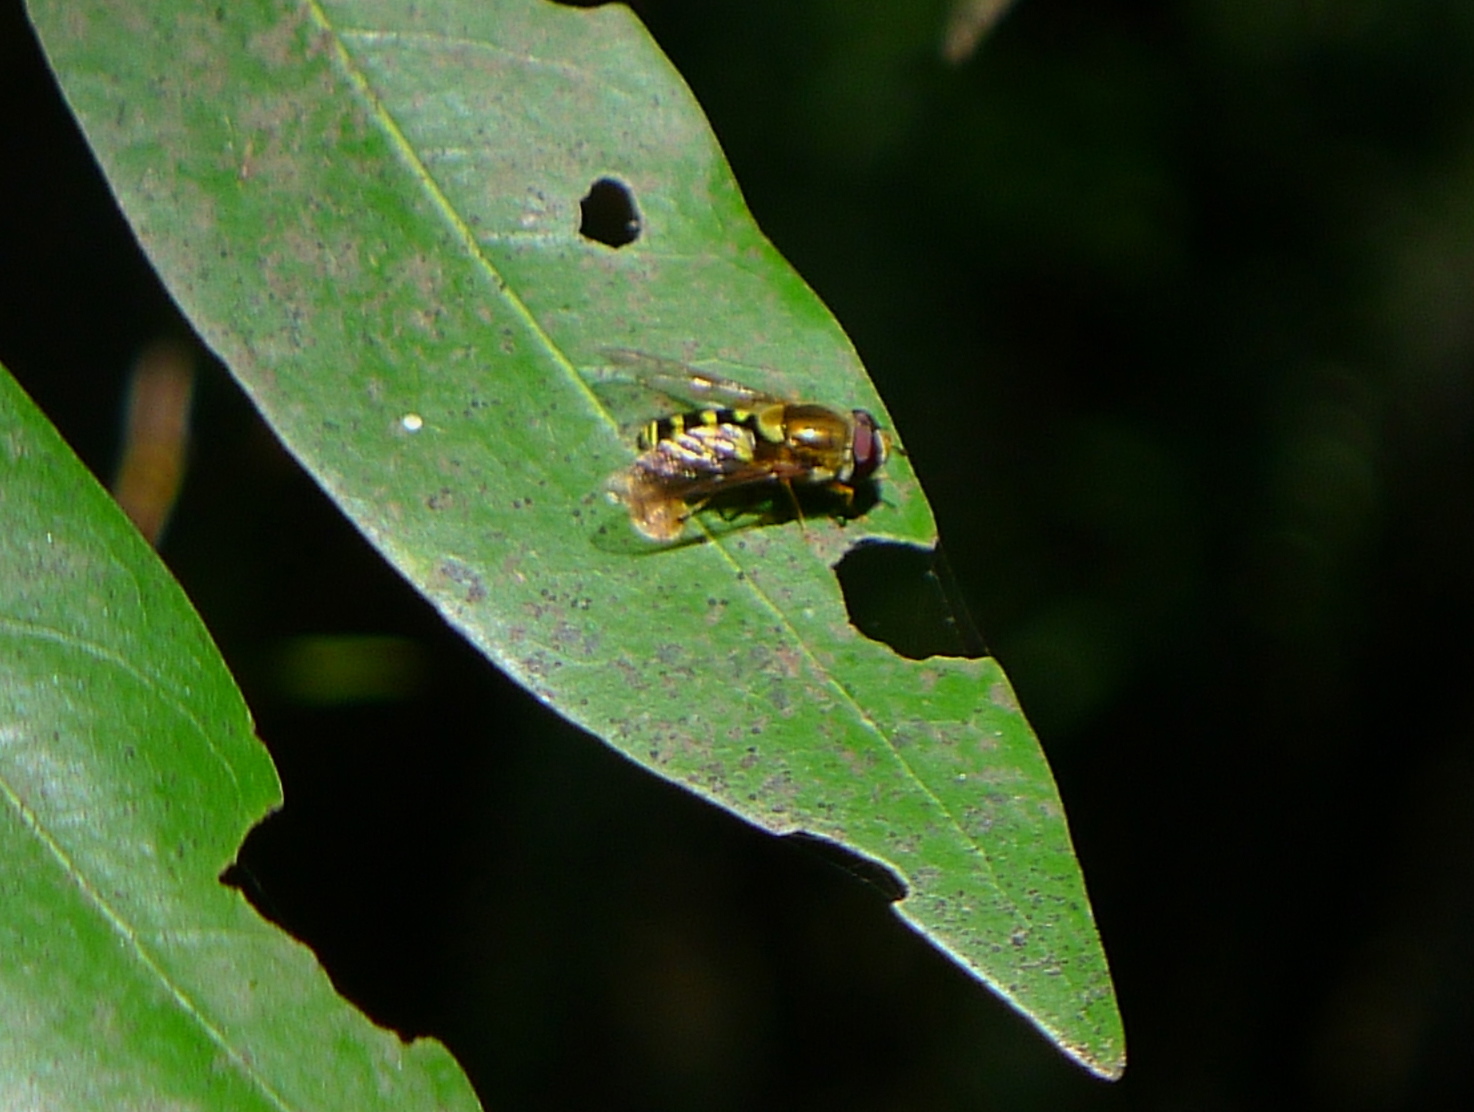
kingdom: Animalia
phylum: Arthropoda
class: Insecta
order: Diptera
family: Syrphidae
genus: Syrphus
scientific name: Syrphus opinator
